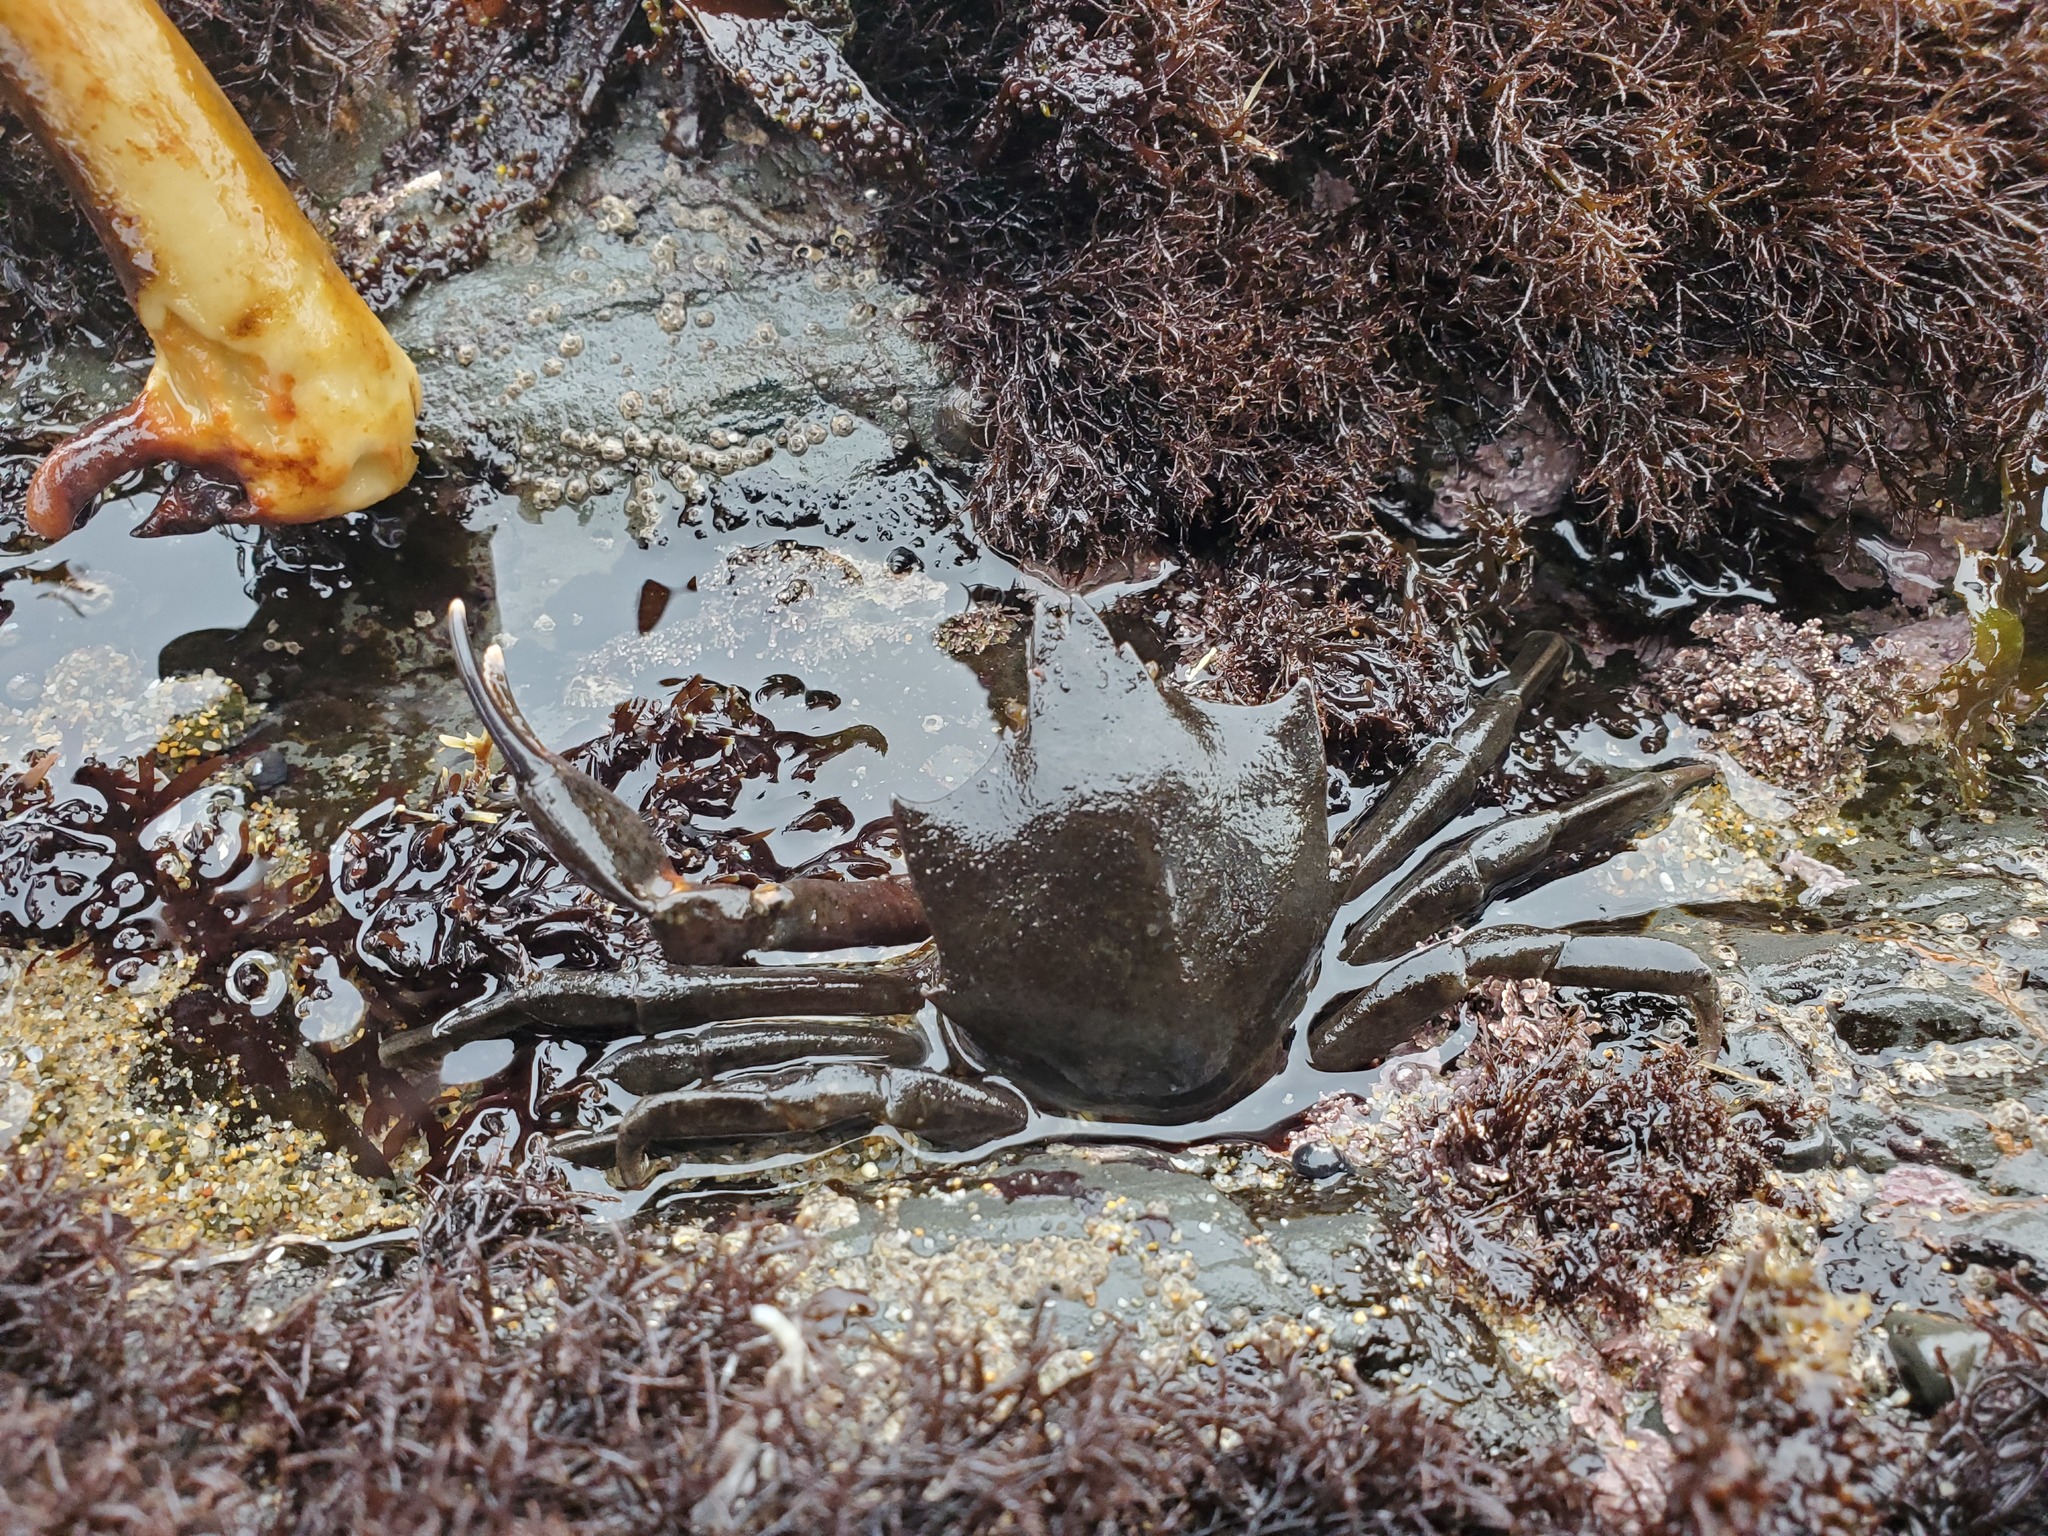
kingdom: Animalia
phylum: Arthropoda
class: Malacostraca
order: Decapoda
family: Epialtidae
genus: Pugettia
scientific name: Pugettia producta
